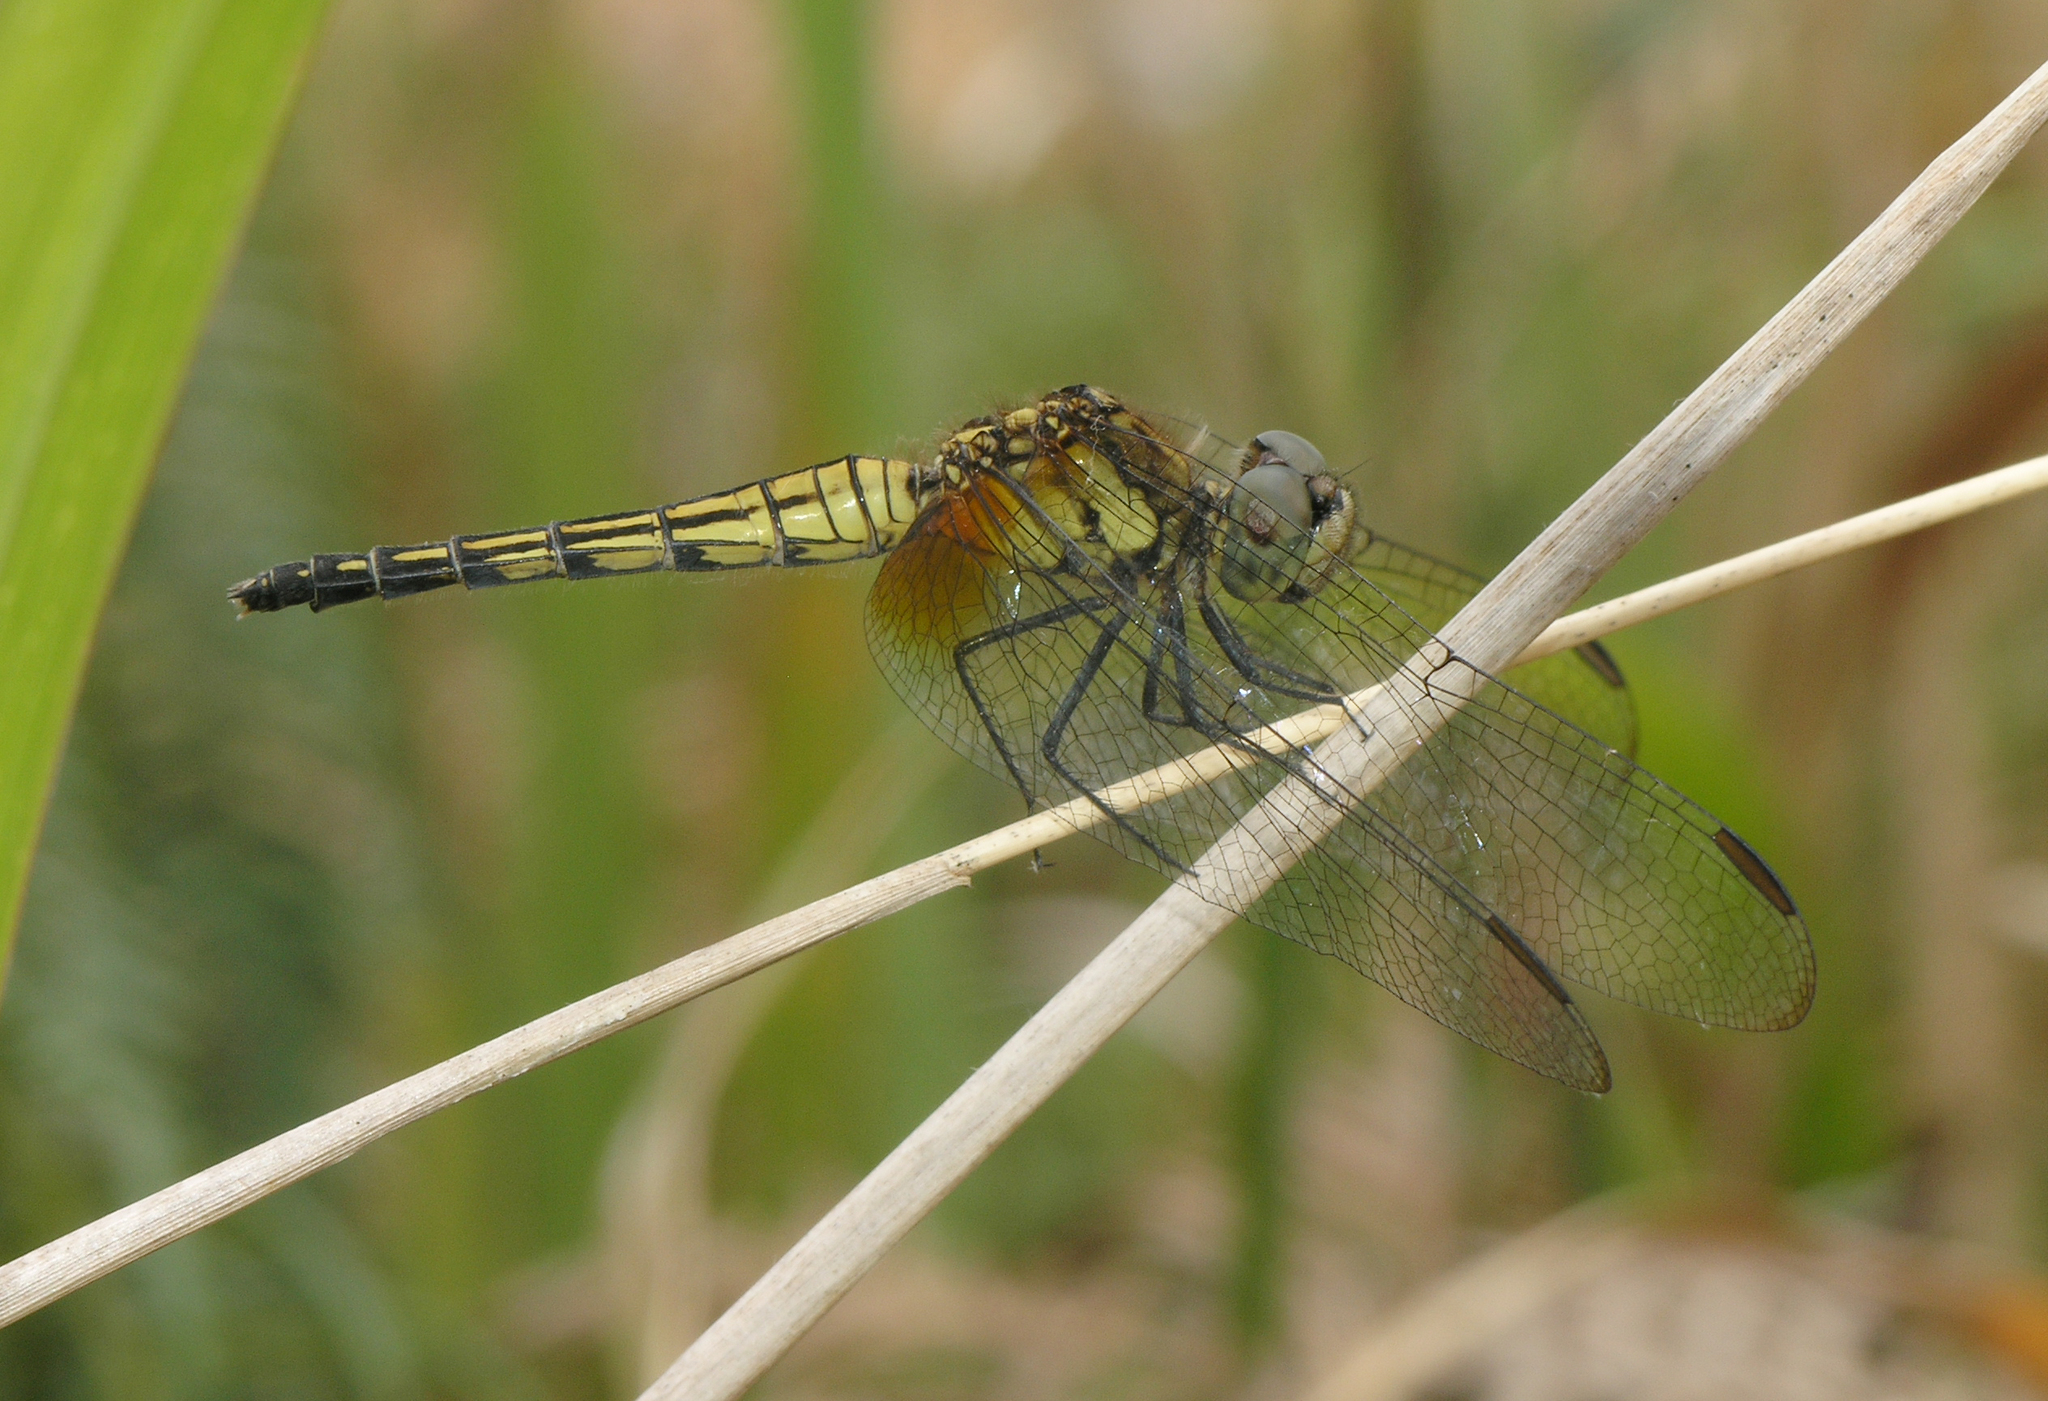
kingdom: Animalia
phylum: Arthropoda
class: Insecta
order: Odonata
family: Libellulidae
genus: Indothemis
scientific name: Indothemis limbata
